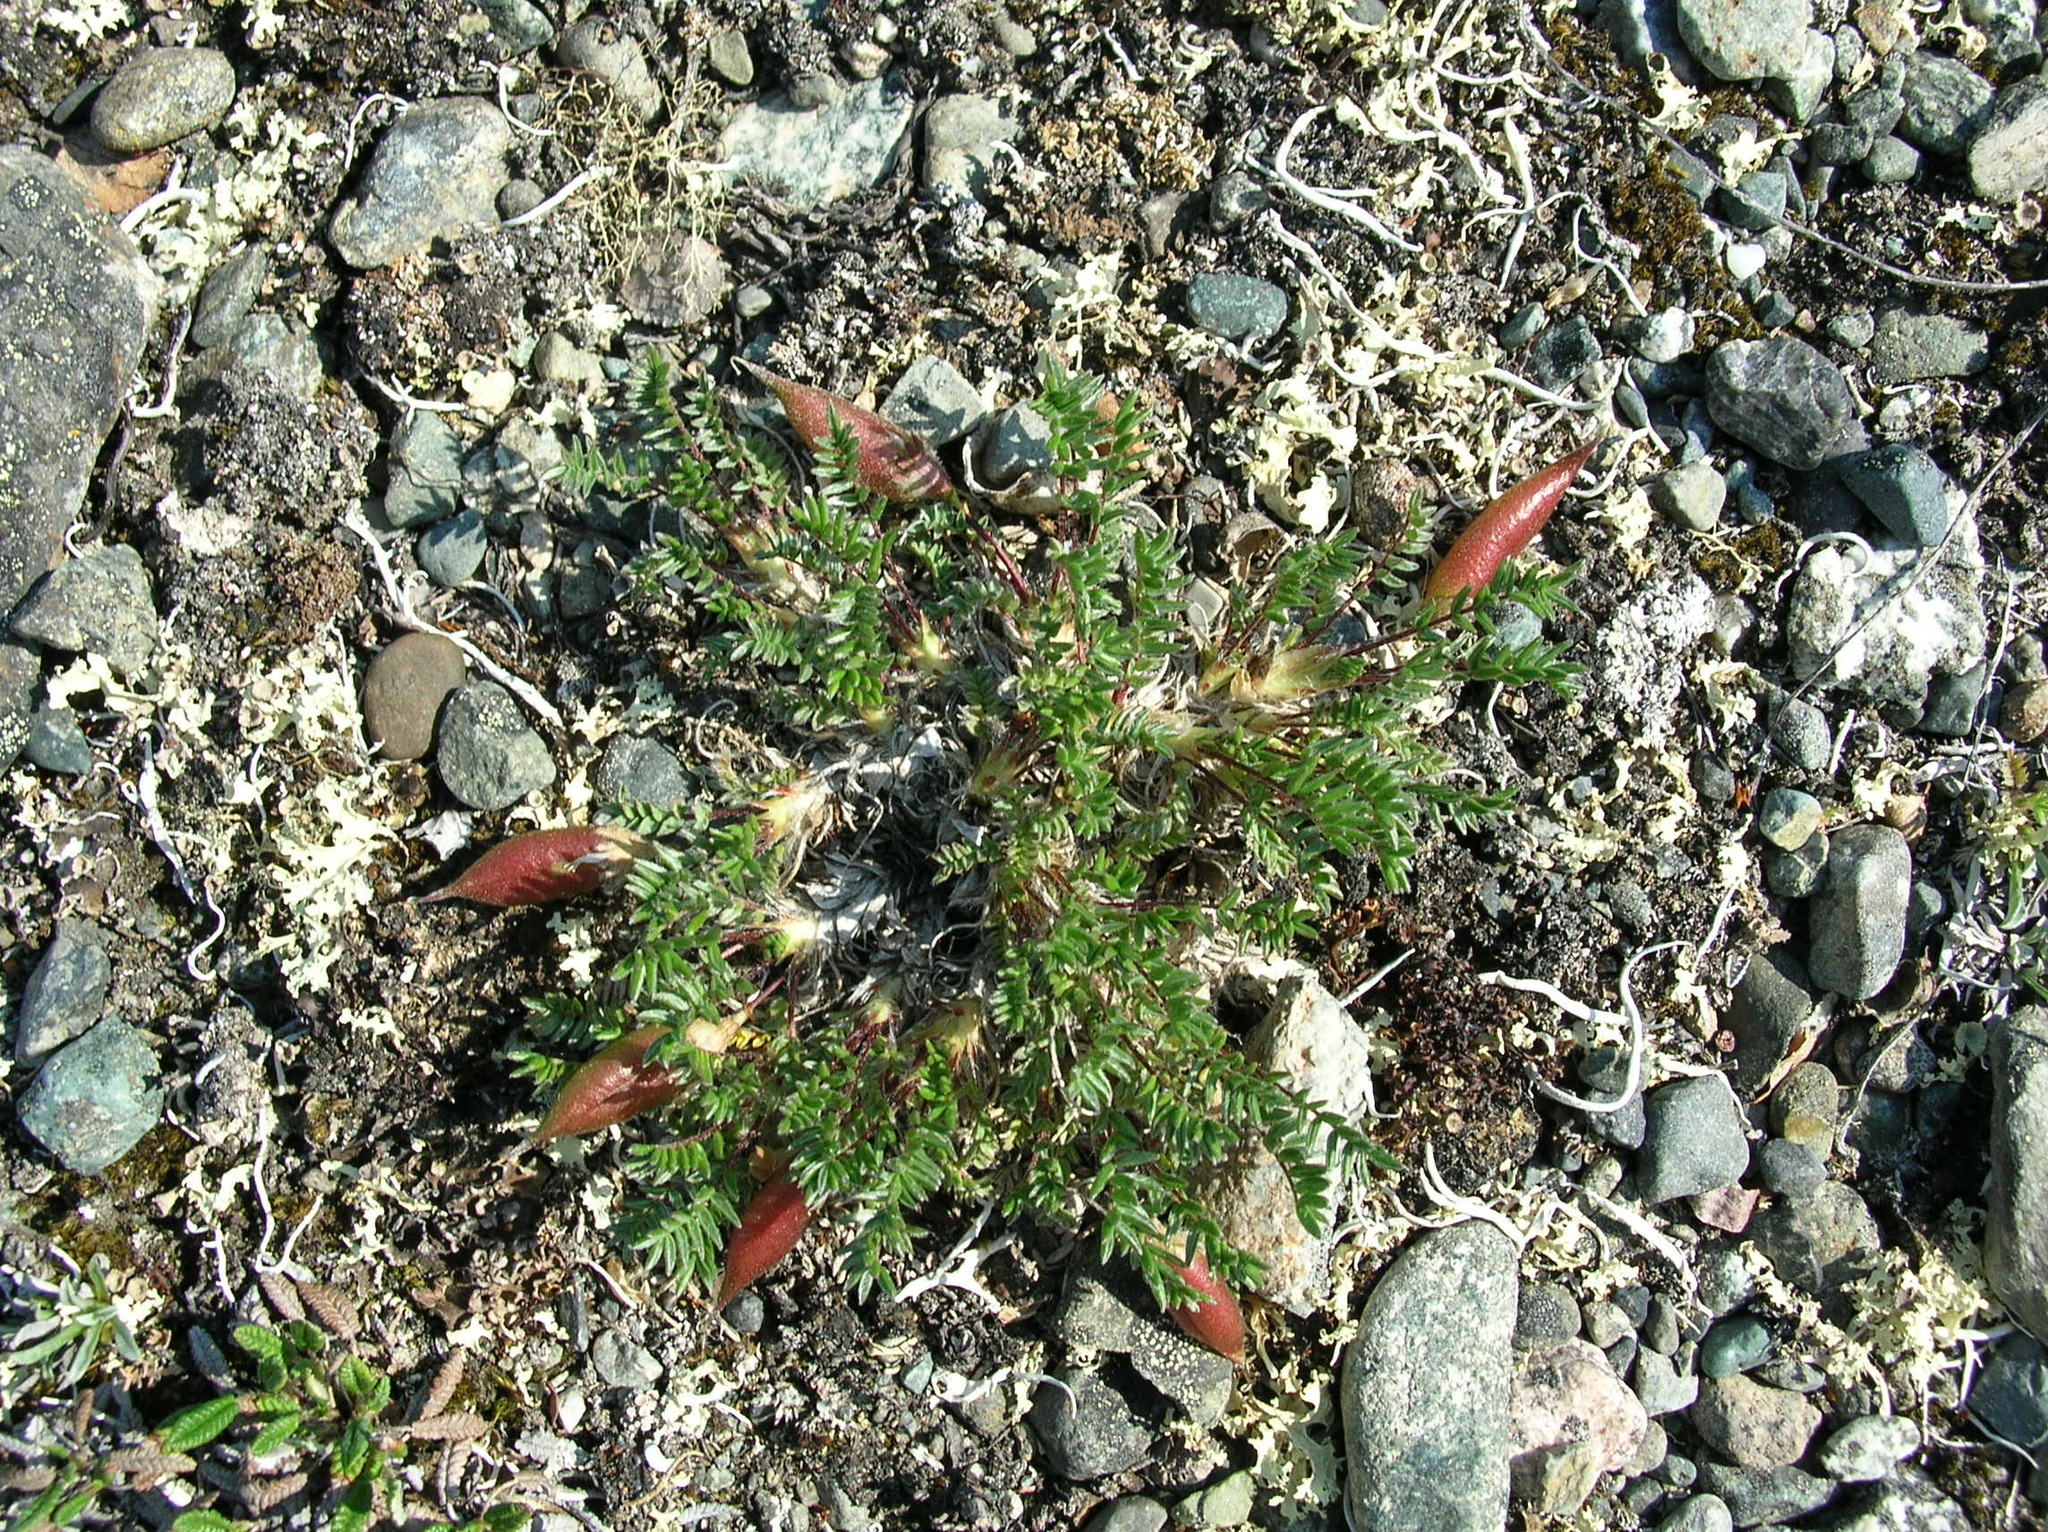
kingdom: Plantae
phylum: Tracheophyta
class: Magnoliopsida
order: Fabales
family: Fabaceae
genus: Oxytropis
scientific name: Oxytropis scammaniana
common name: Scamman's locoweed
